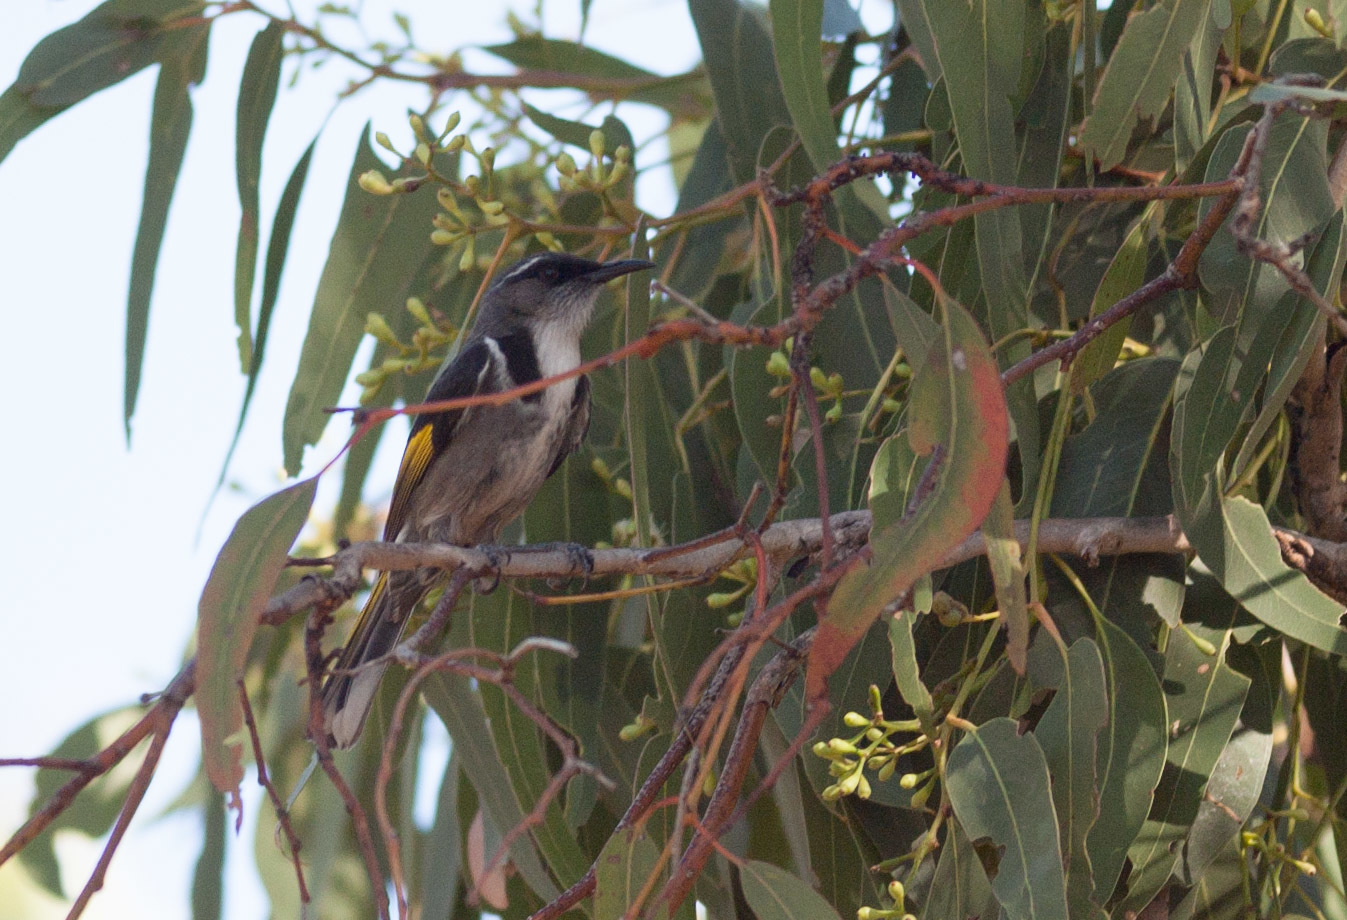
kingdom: Animalia
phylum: Chordata
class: Aves
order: Passeriformes
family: Meliphagidae
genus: Phylidonyris
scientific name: Phylidonyris pyrrhopterus
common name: Crescent honeyeater
